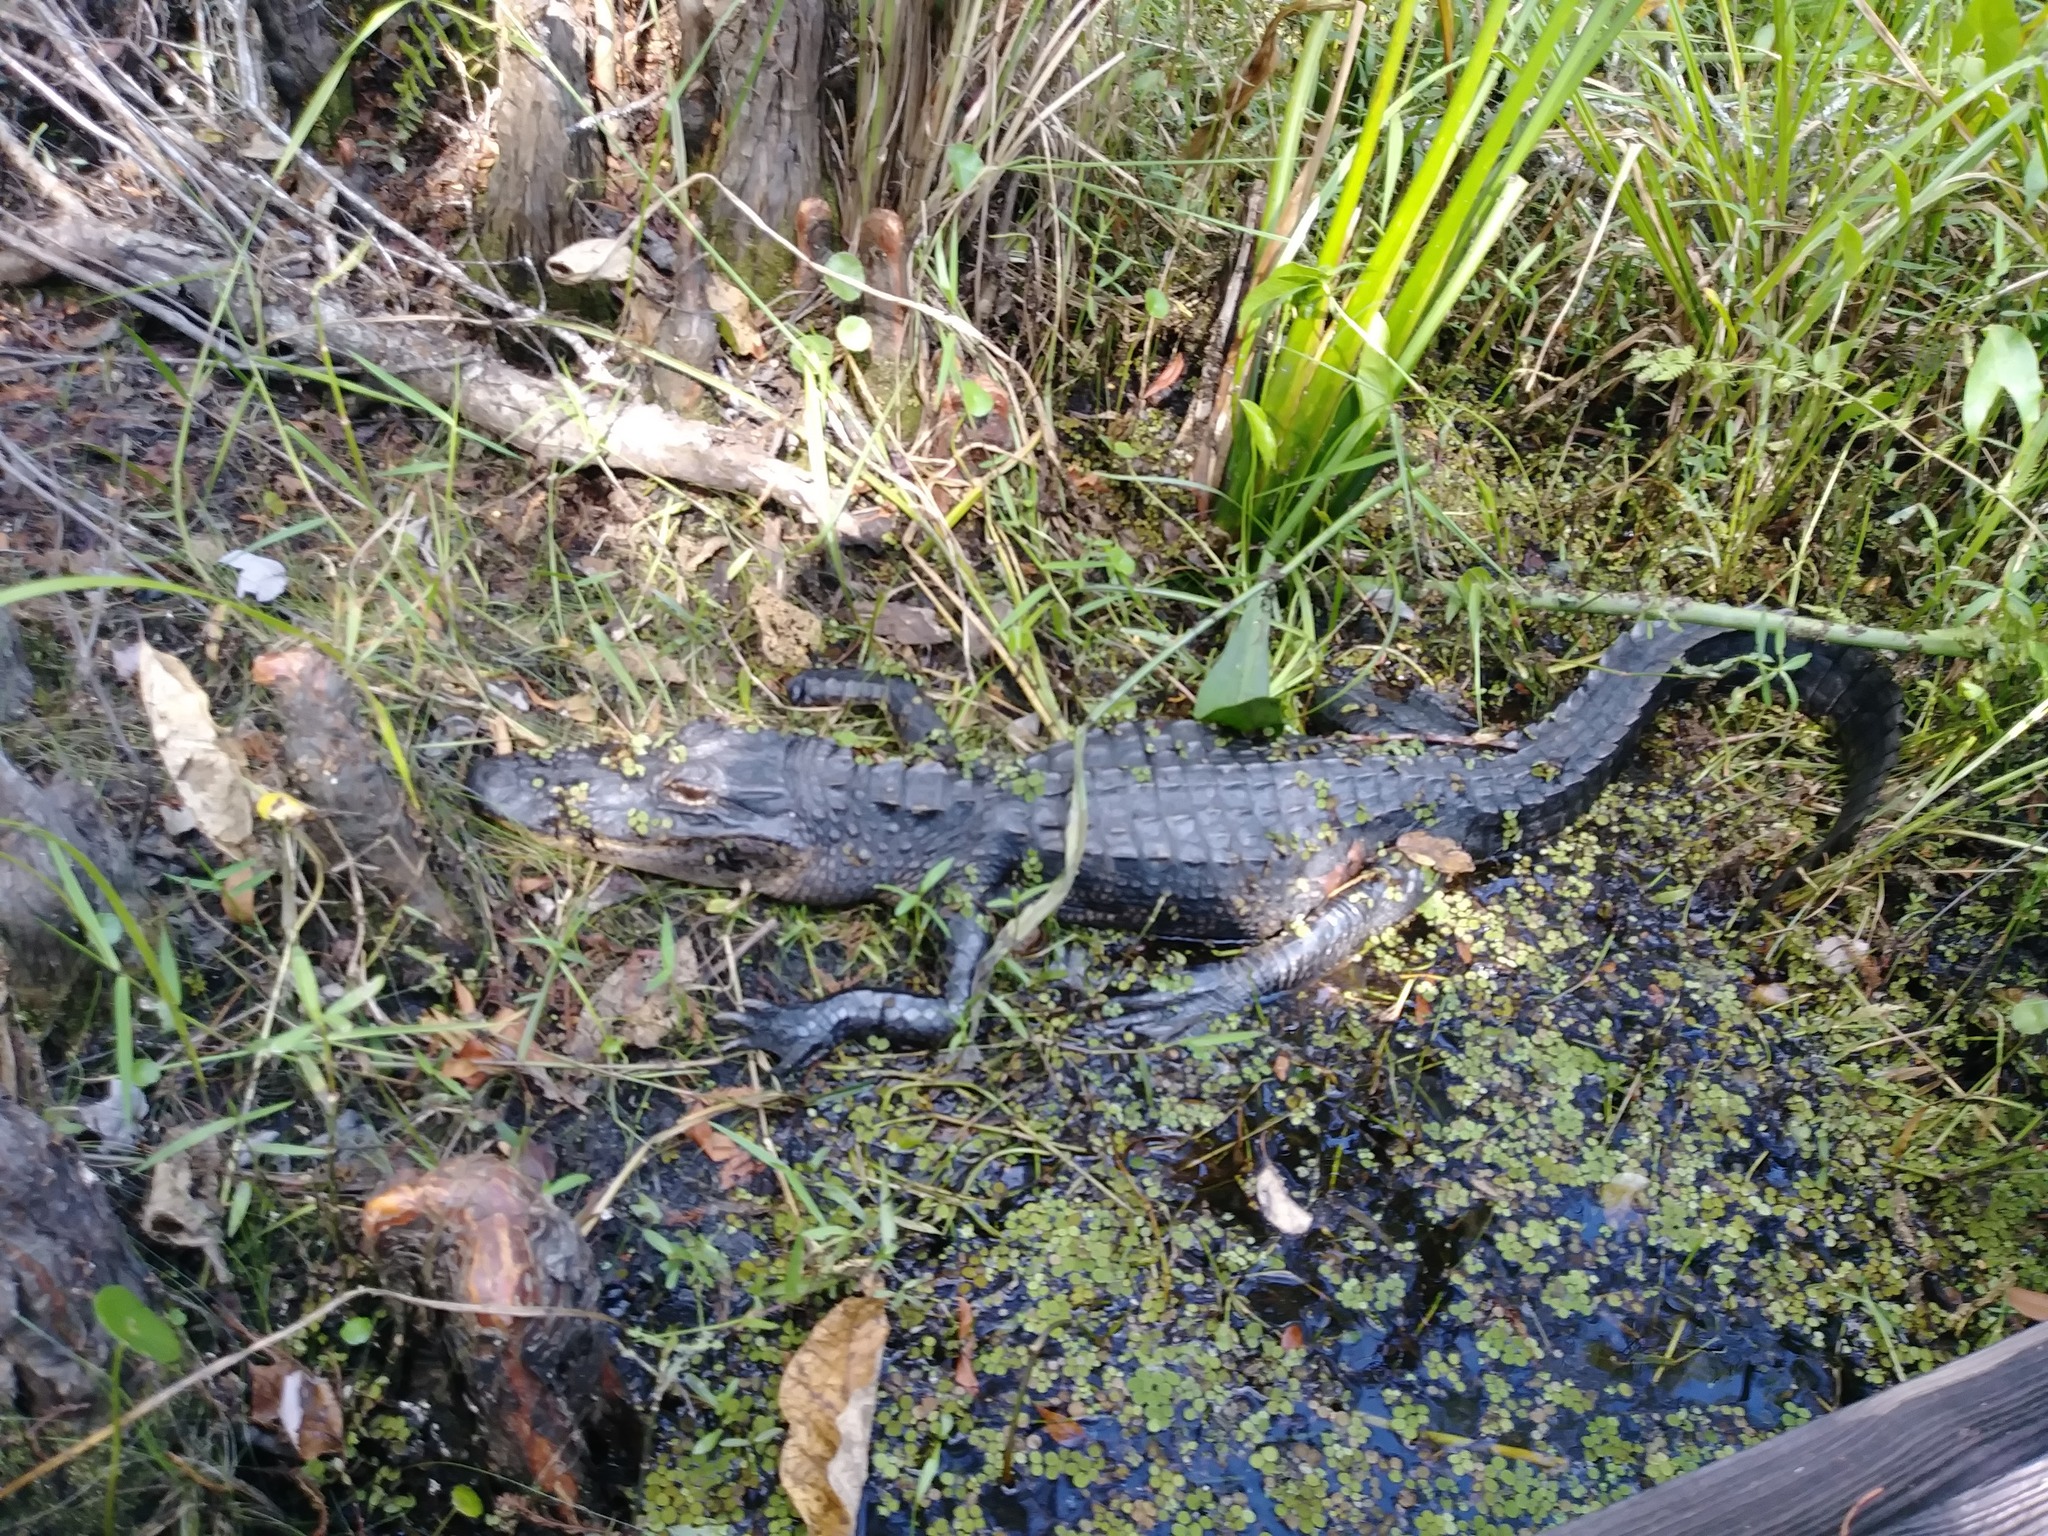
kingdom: Animalia
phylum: Chordata
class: Crocodylia
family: Alligatoridae
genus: Alligator
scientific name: Alligator mississippiensis
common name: American alligator
